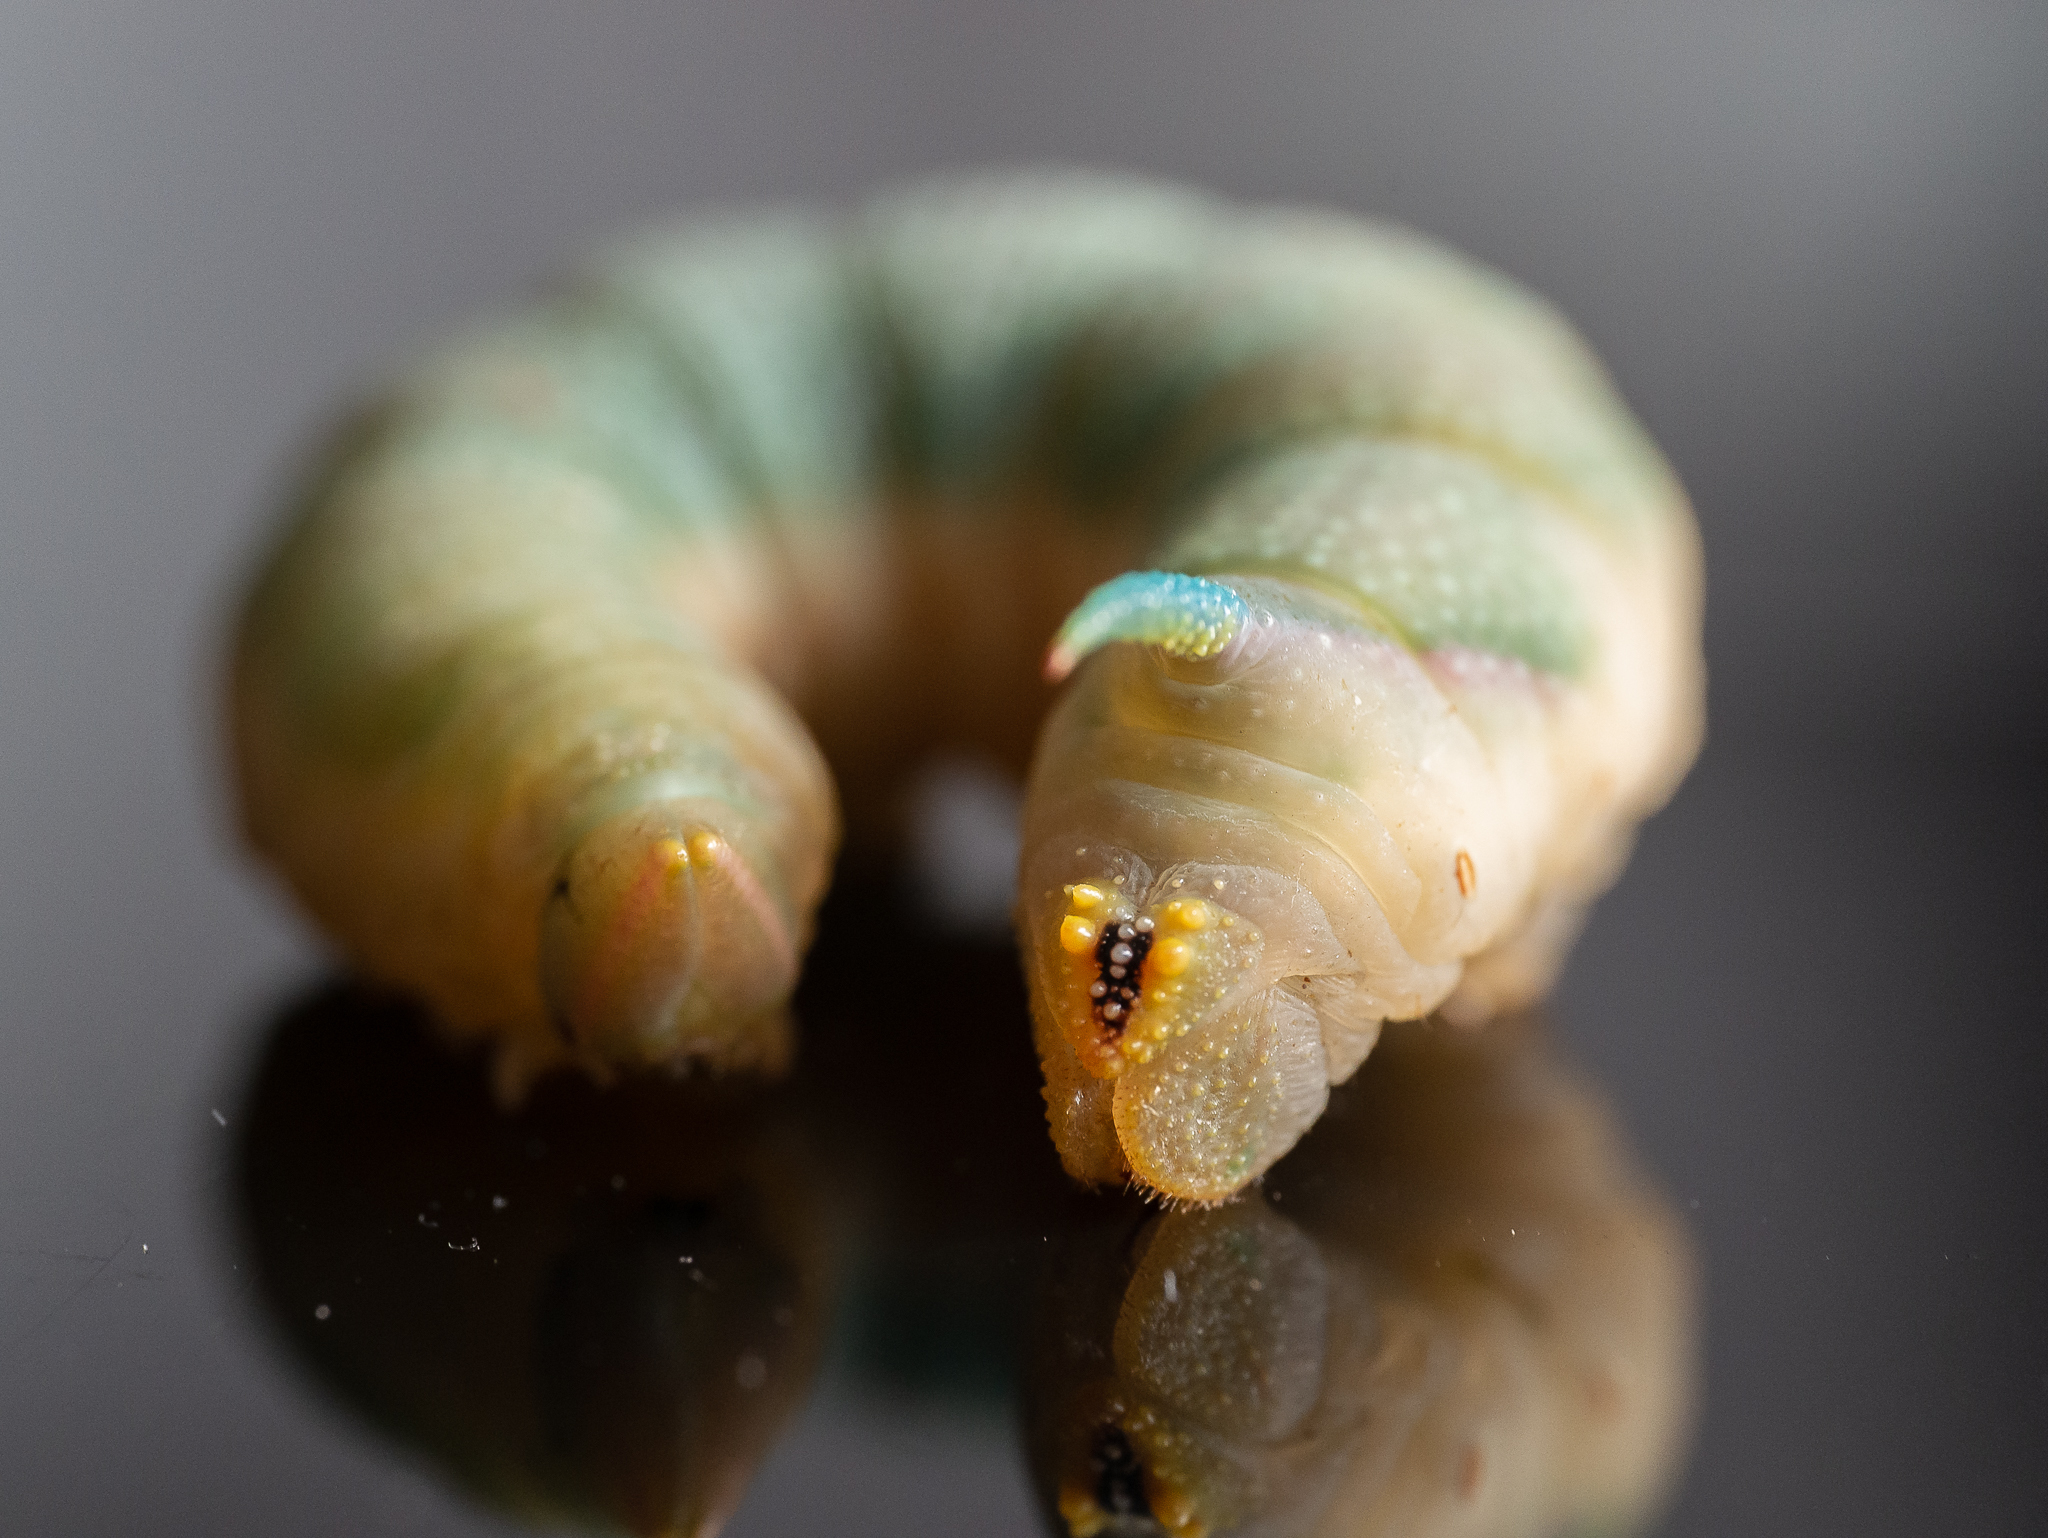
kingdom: Animalia
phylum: Arthropoda
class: Insecta
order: Lepidoptera
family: Sphingidae
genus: Mimas
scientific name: Mimas tiliae
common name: Lime hawk-moth
